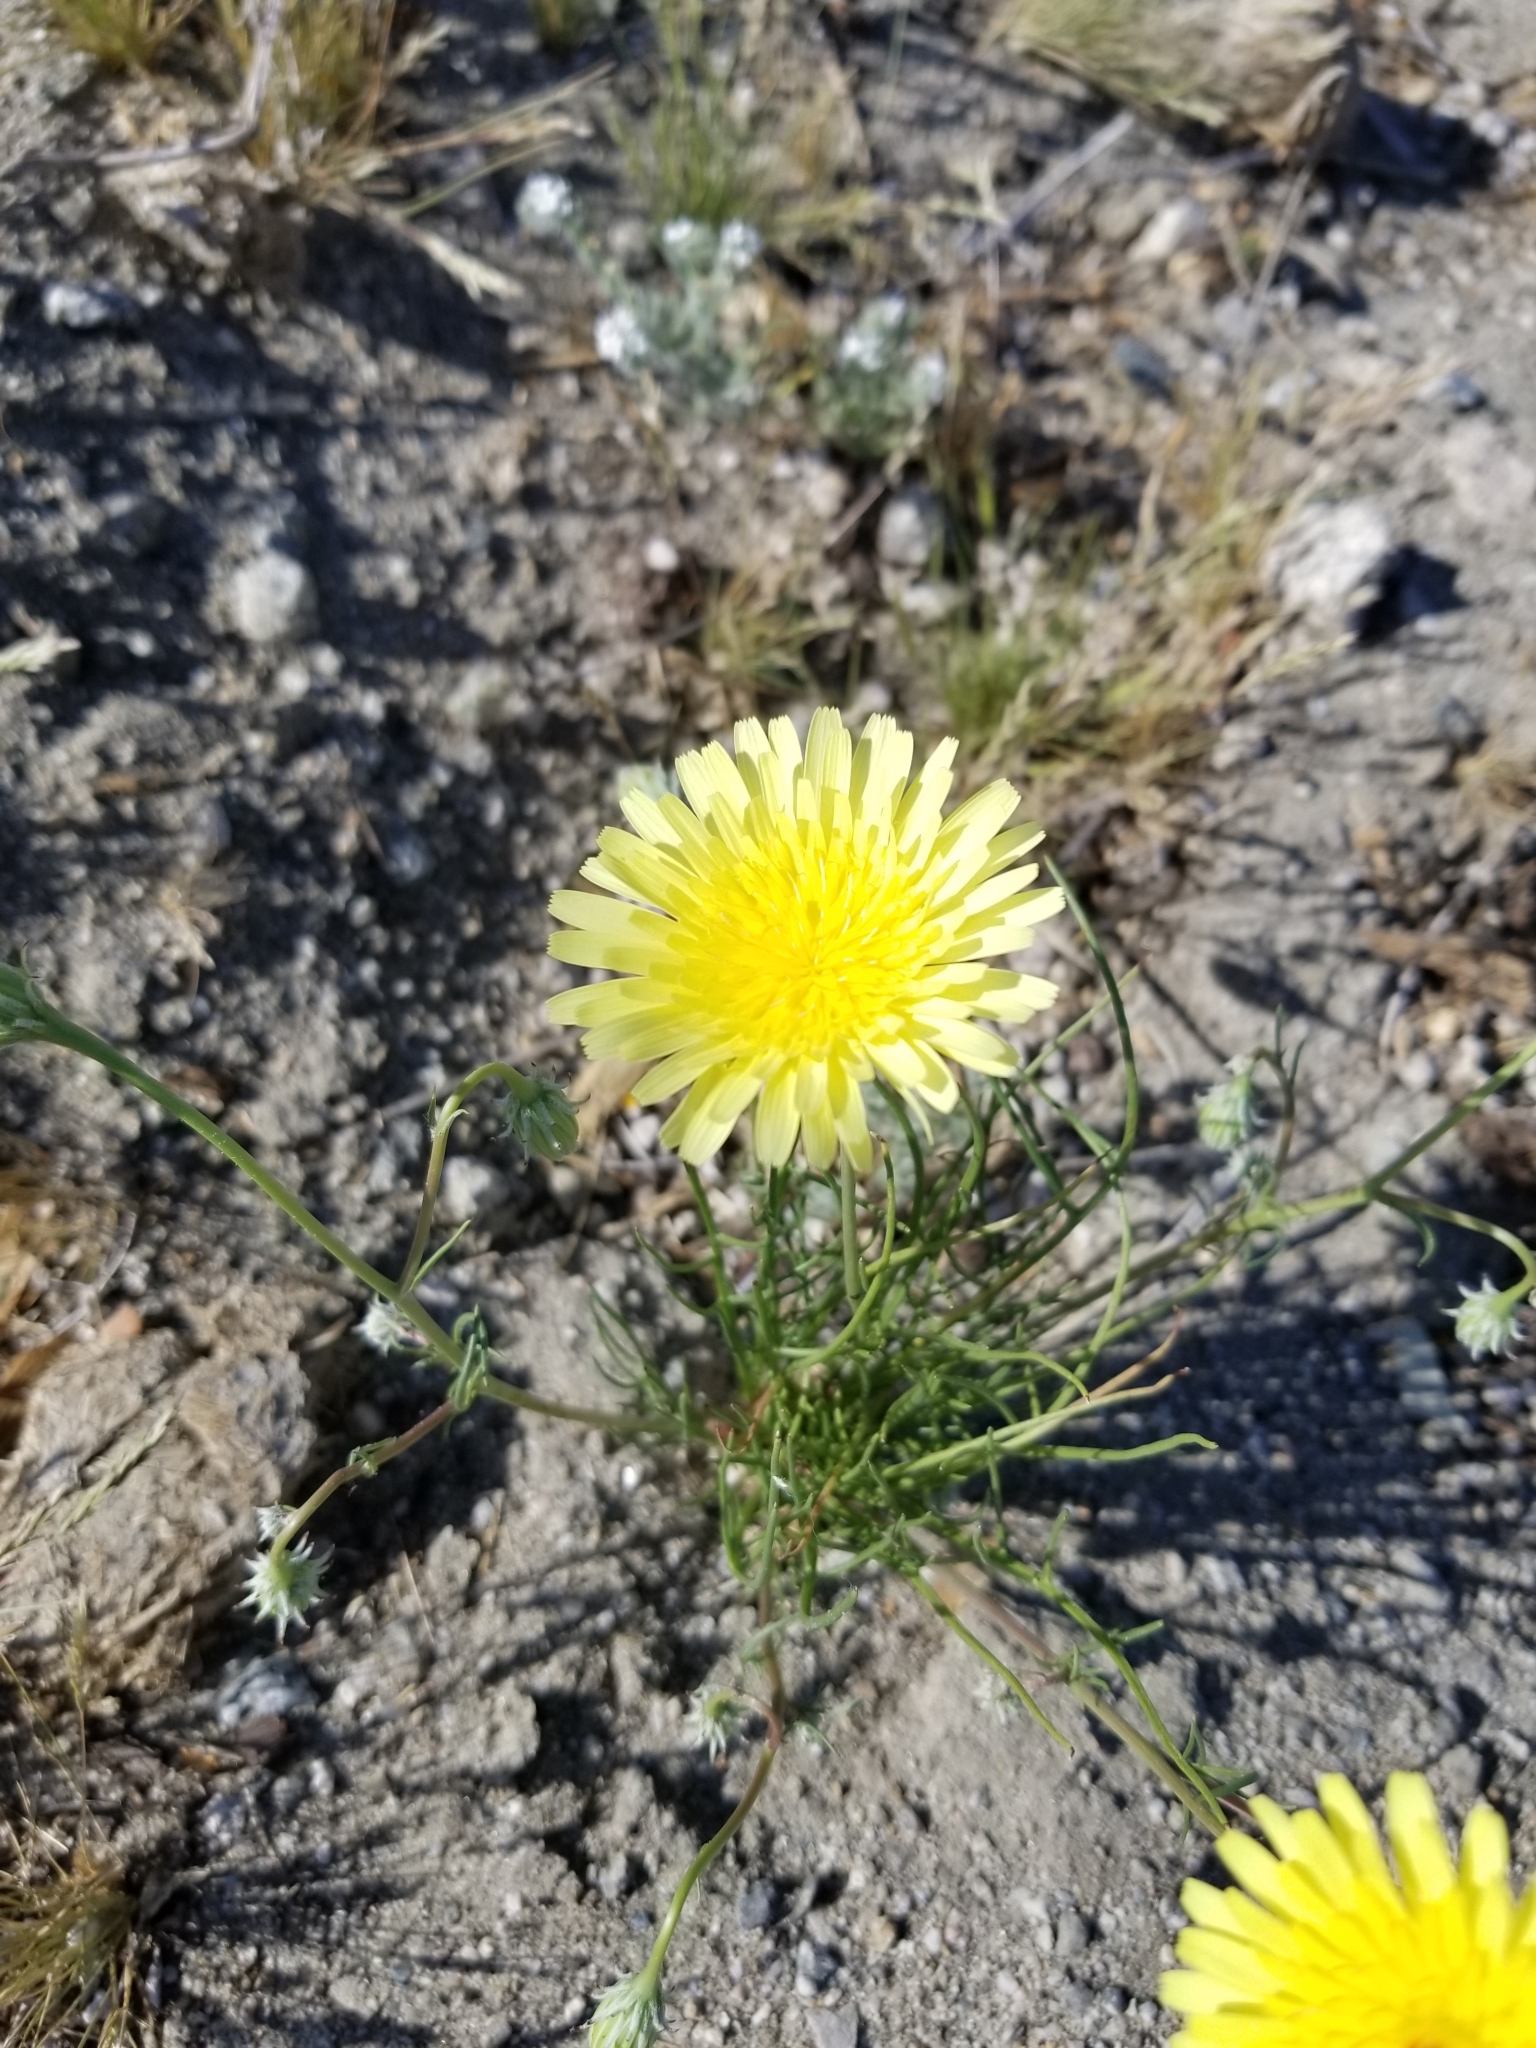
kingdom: Plantae
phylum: Tracheophyta
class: Magnoliopsida
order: Asterales
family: Asteraceae
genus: Malacothrix
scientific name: Malacothrix glabrata
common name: Smooth desert-dandelion
